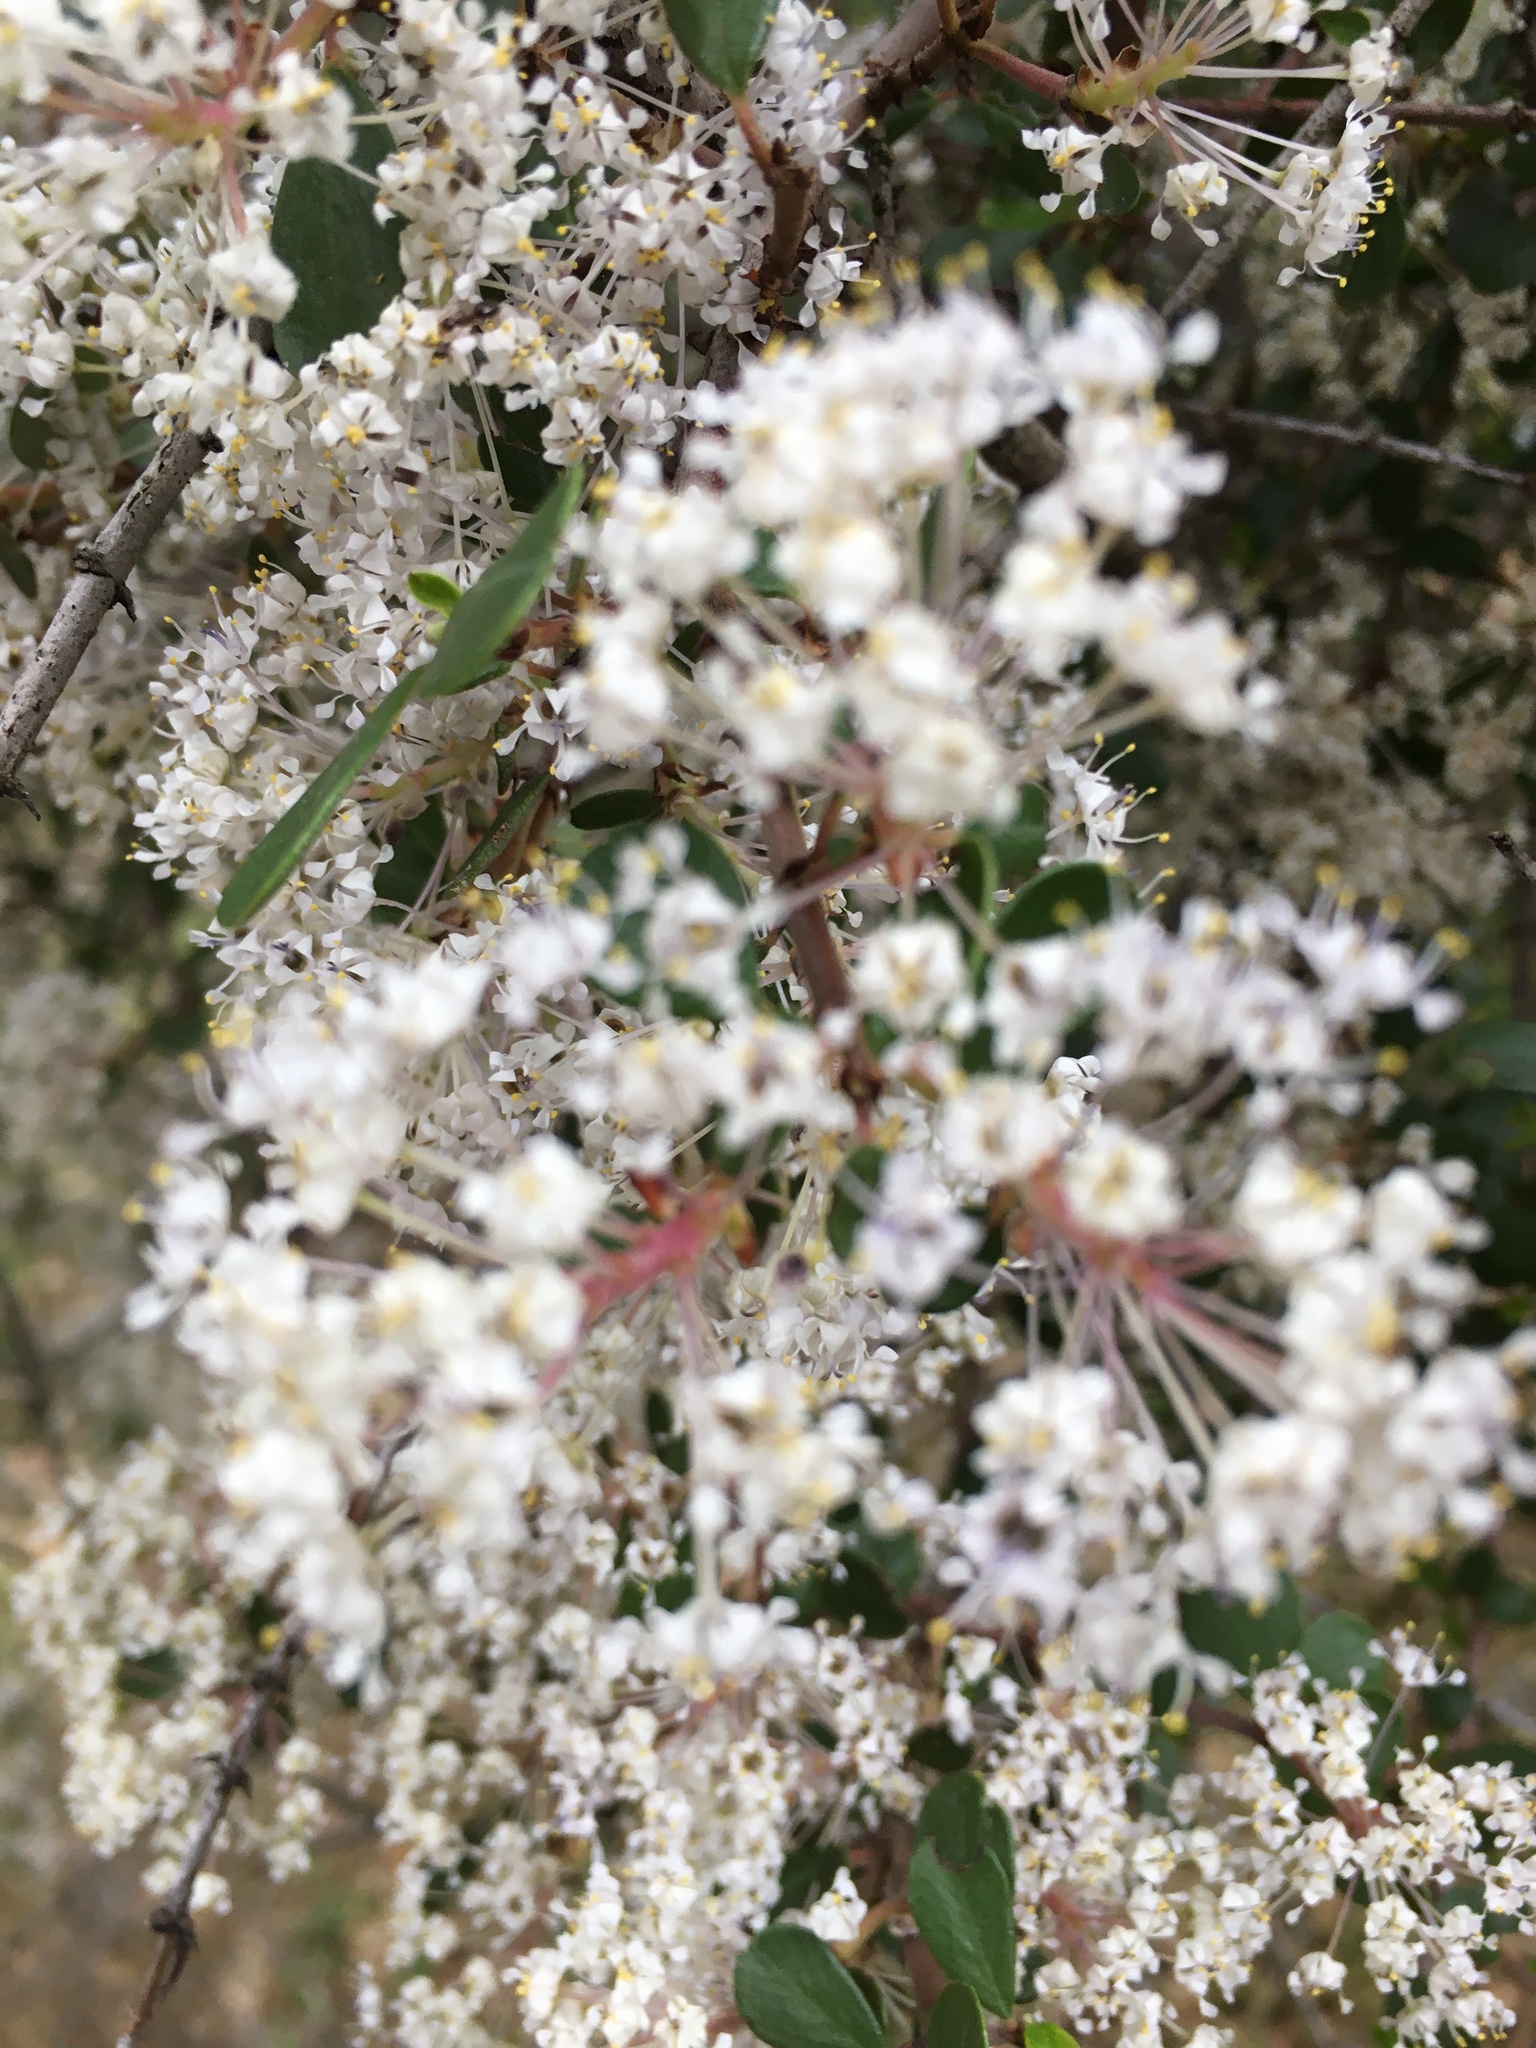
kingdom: Plantae
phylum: Tracheophyta
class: Magnoliopsida
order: Rosales
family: Rhamnaceae
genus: Ceanothus
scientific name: Ceanothus cuneatus
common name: Cuneate ceanothus
